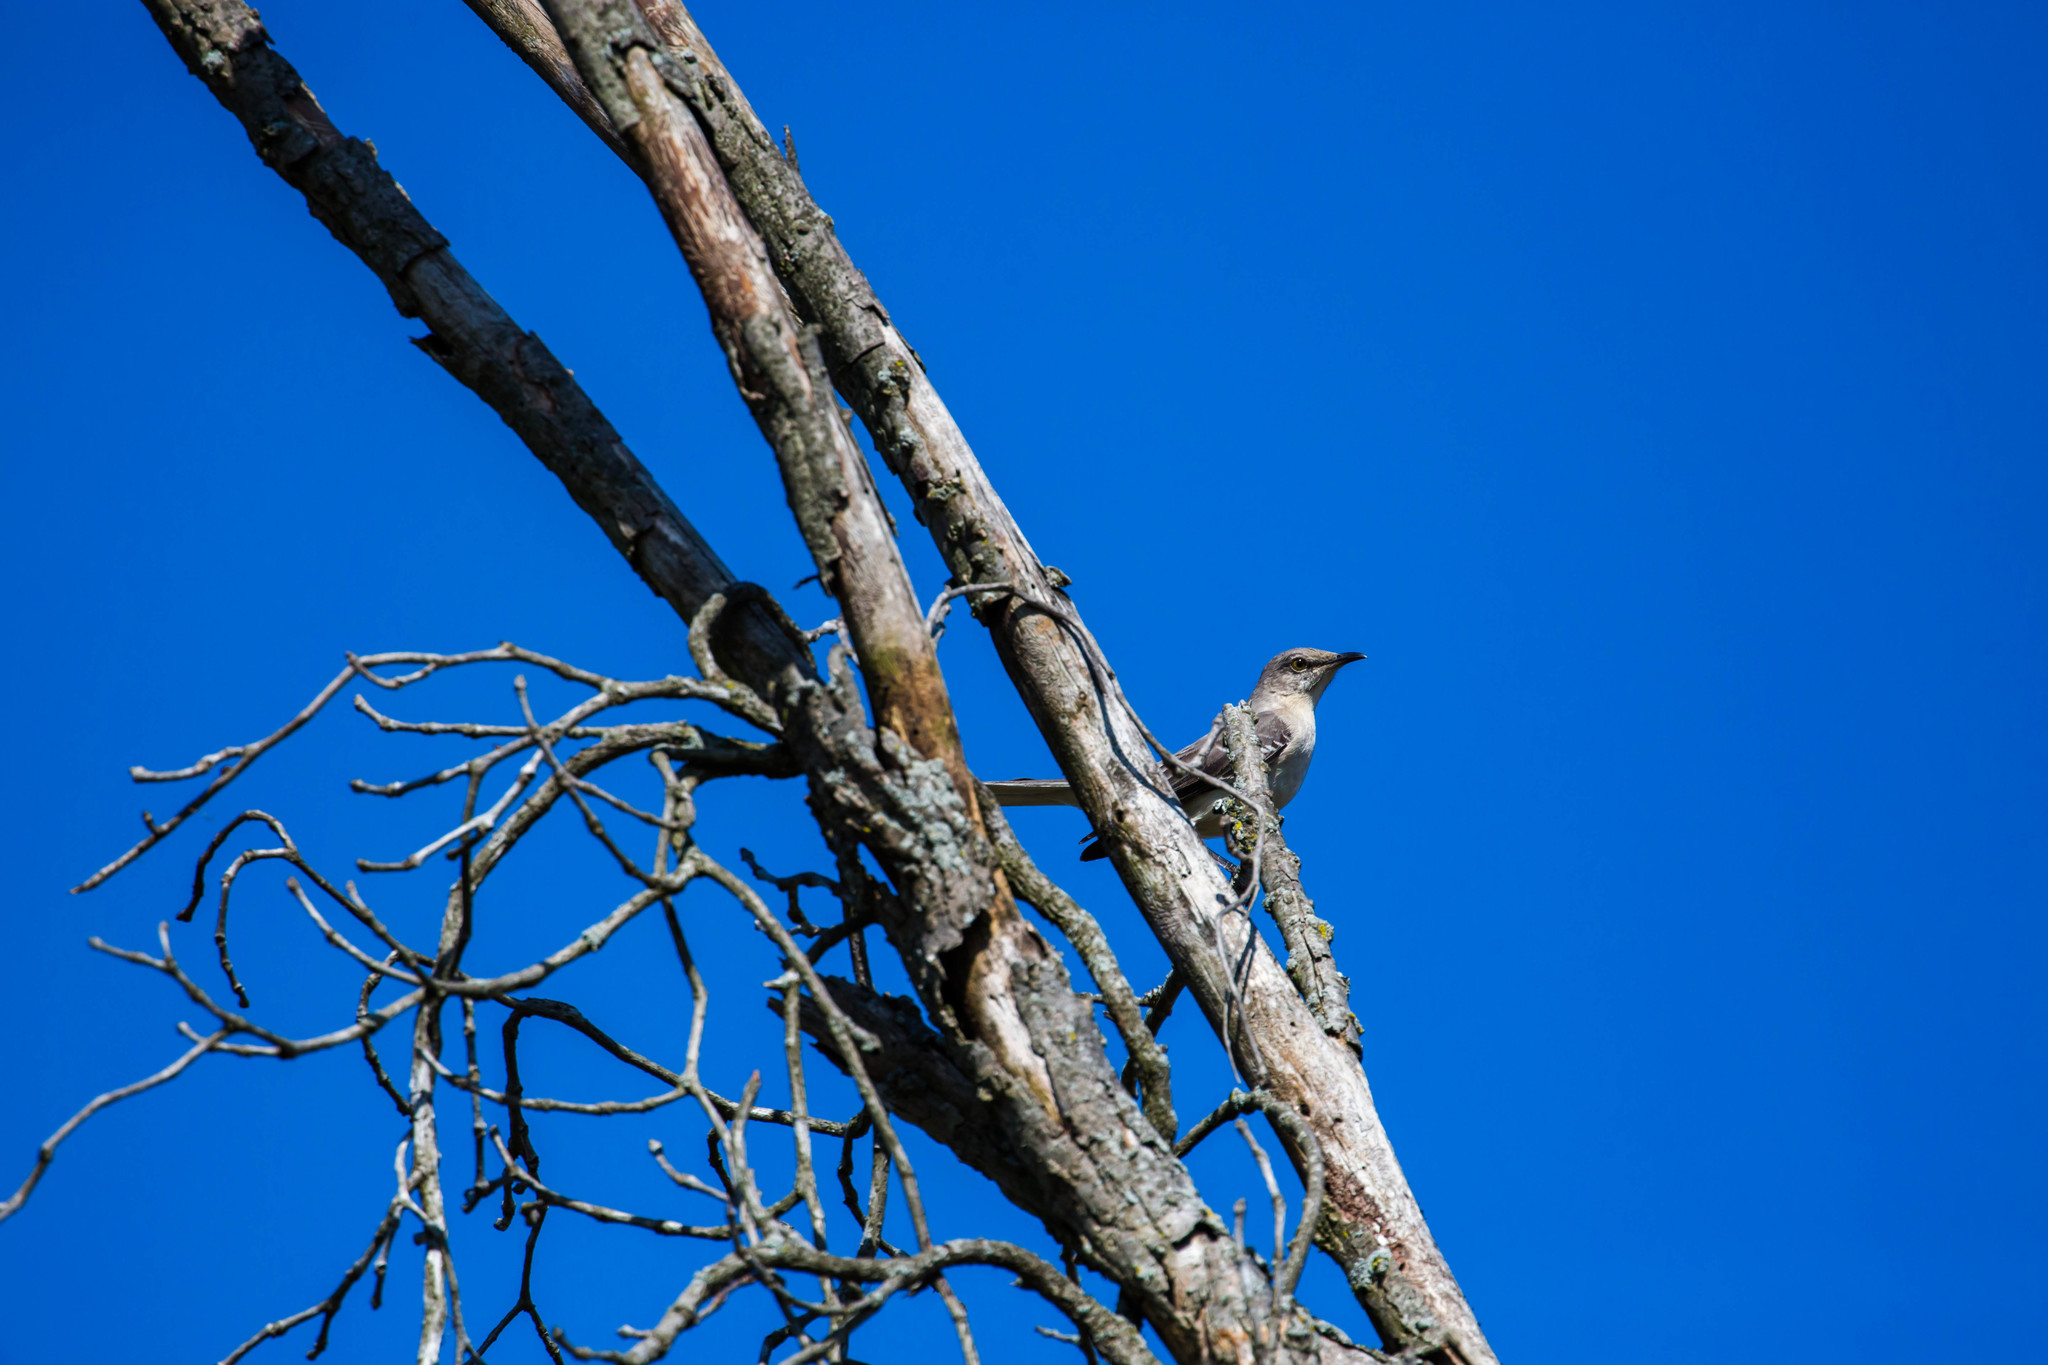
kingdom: Animalia
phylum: Chordata
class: Aves
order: Passeriformes
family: Mimidae
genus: Mimus
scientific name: Mimus polyglottos
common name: Northern mockingbird
